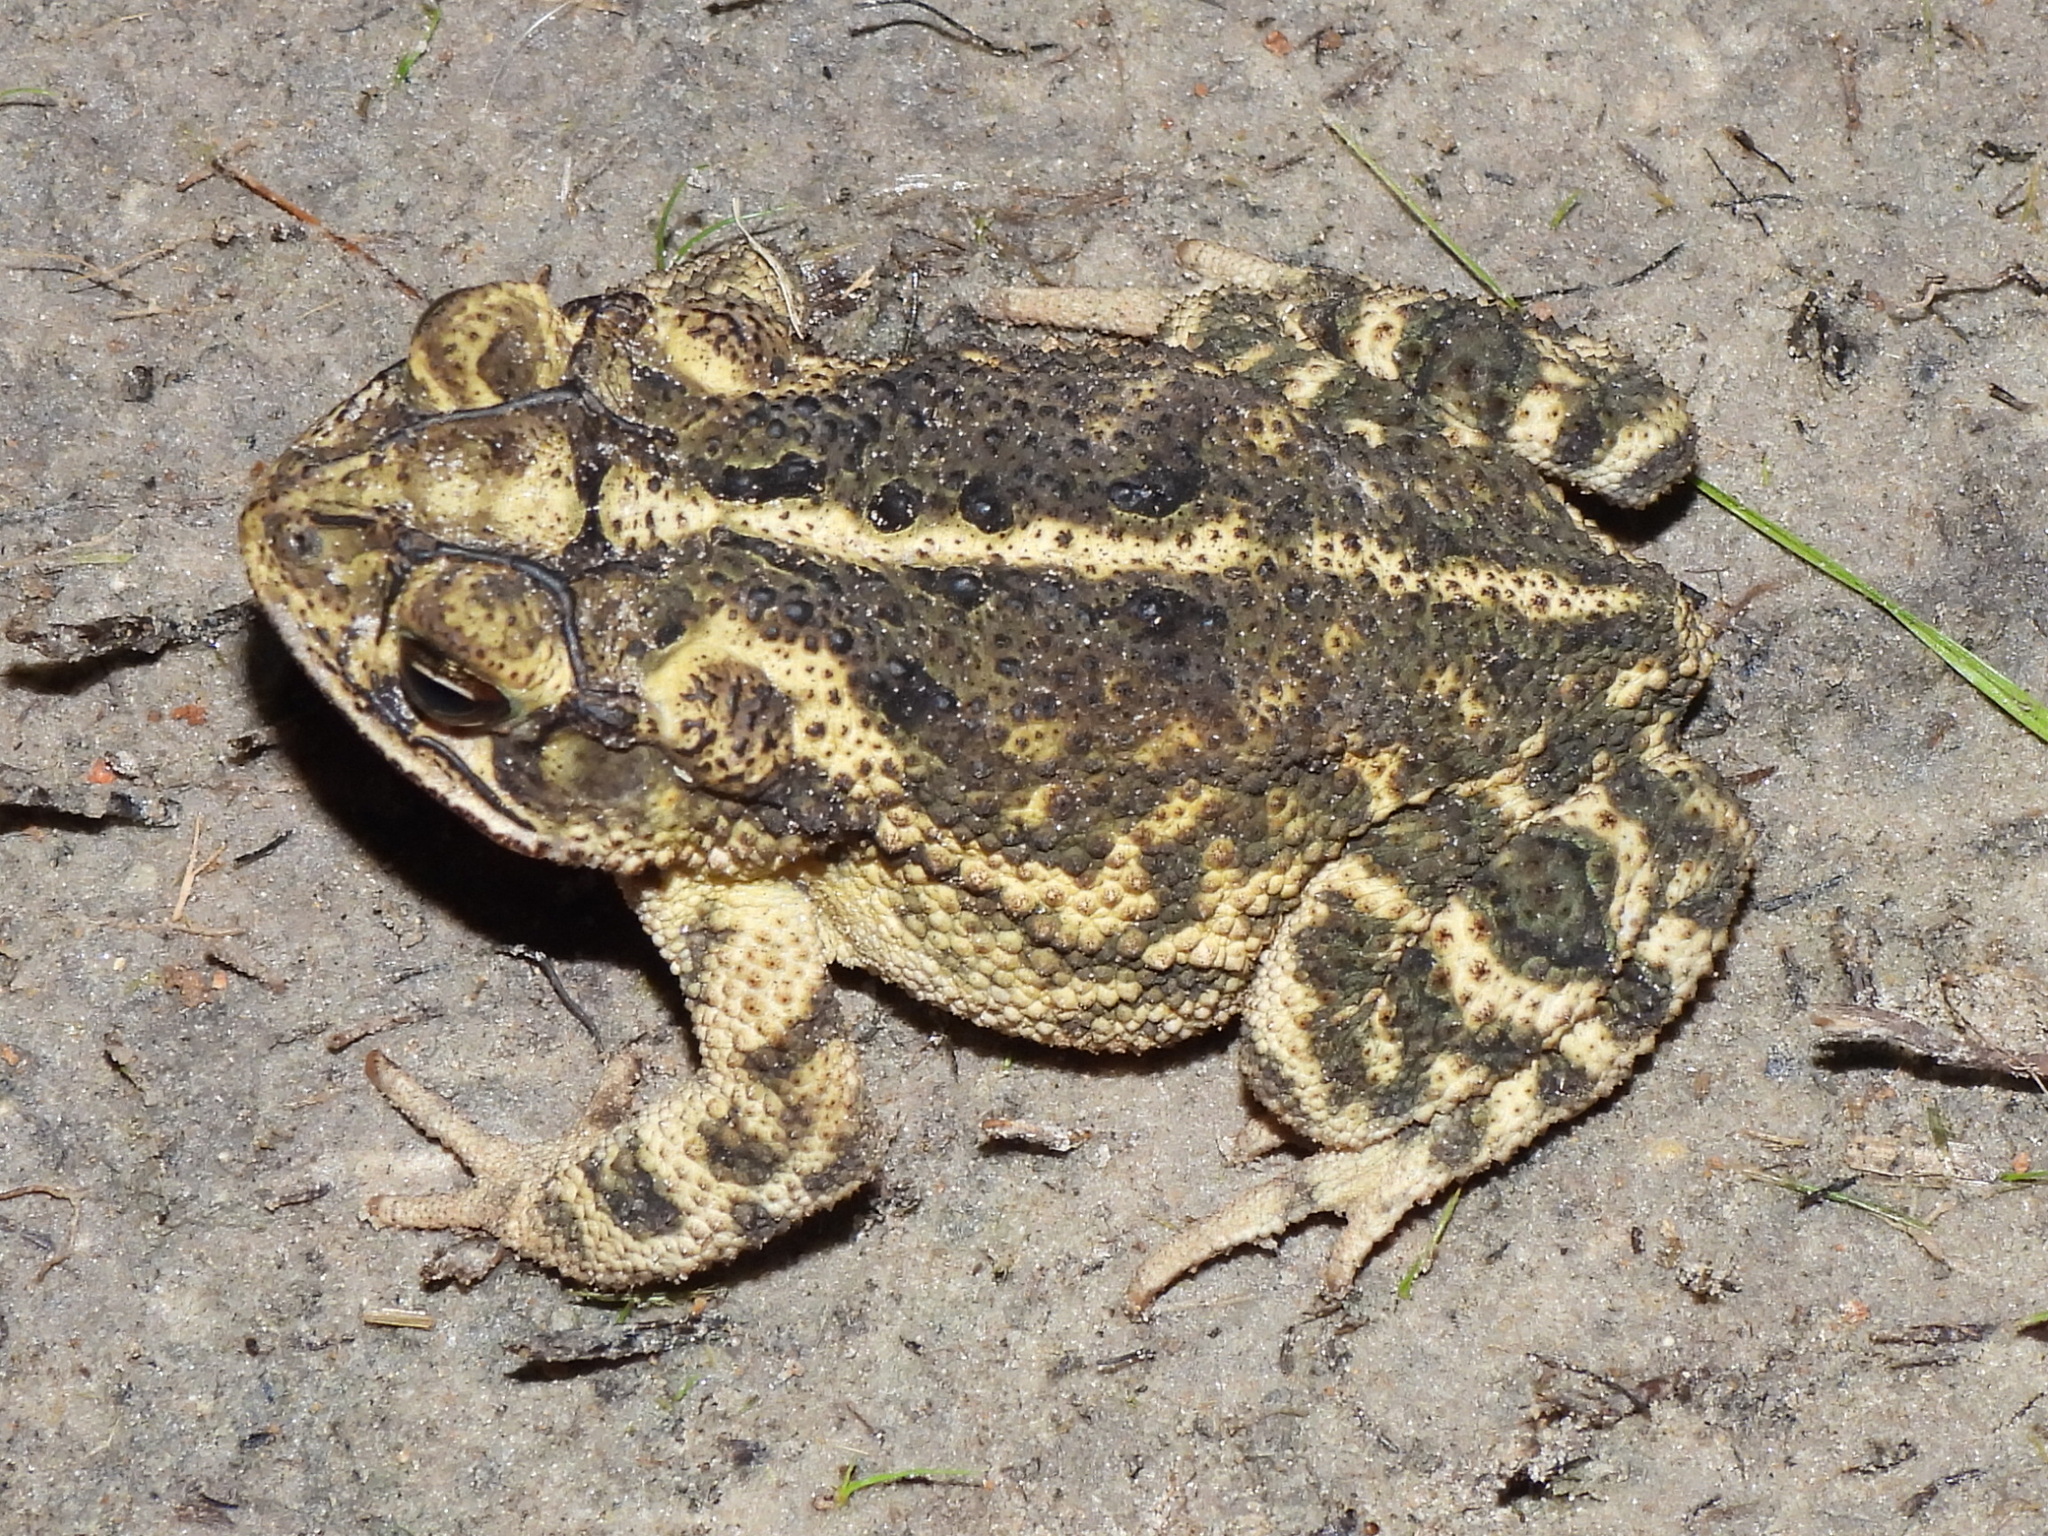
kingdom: Animalia
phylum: Chordata
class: Amphibia
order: Anura
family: Bufonidae
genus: Incilius
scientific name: Incilius nebulifer
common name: Gulf coast toad
